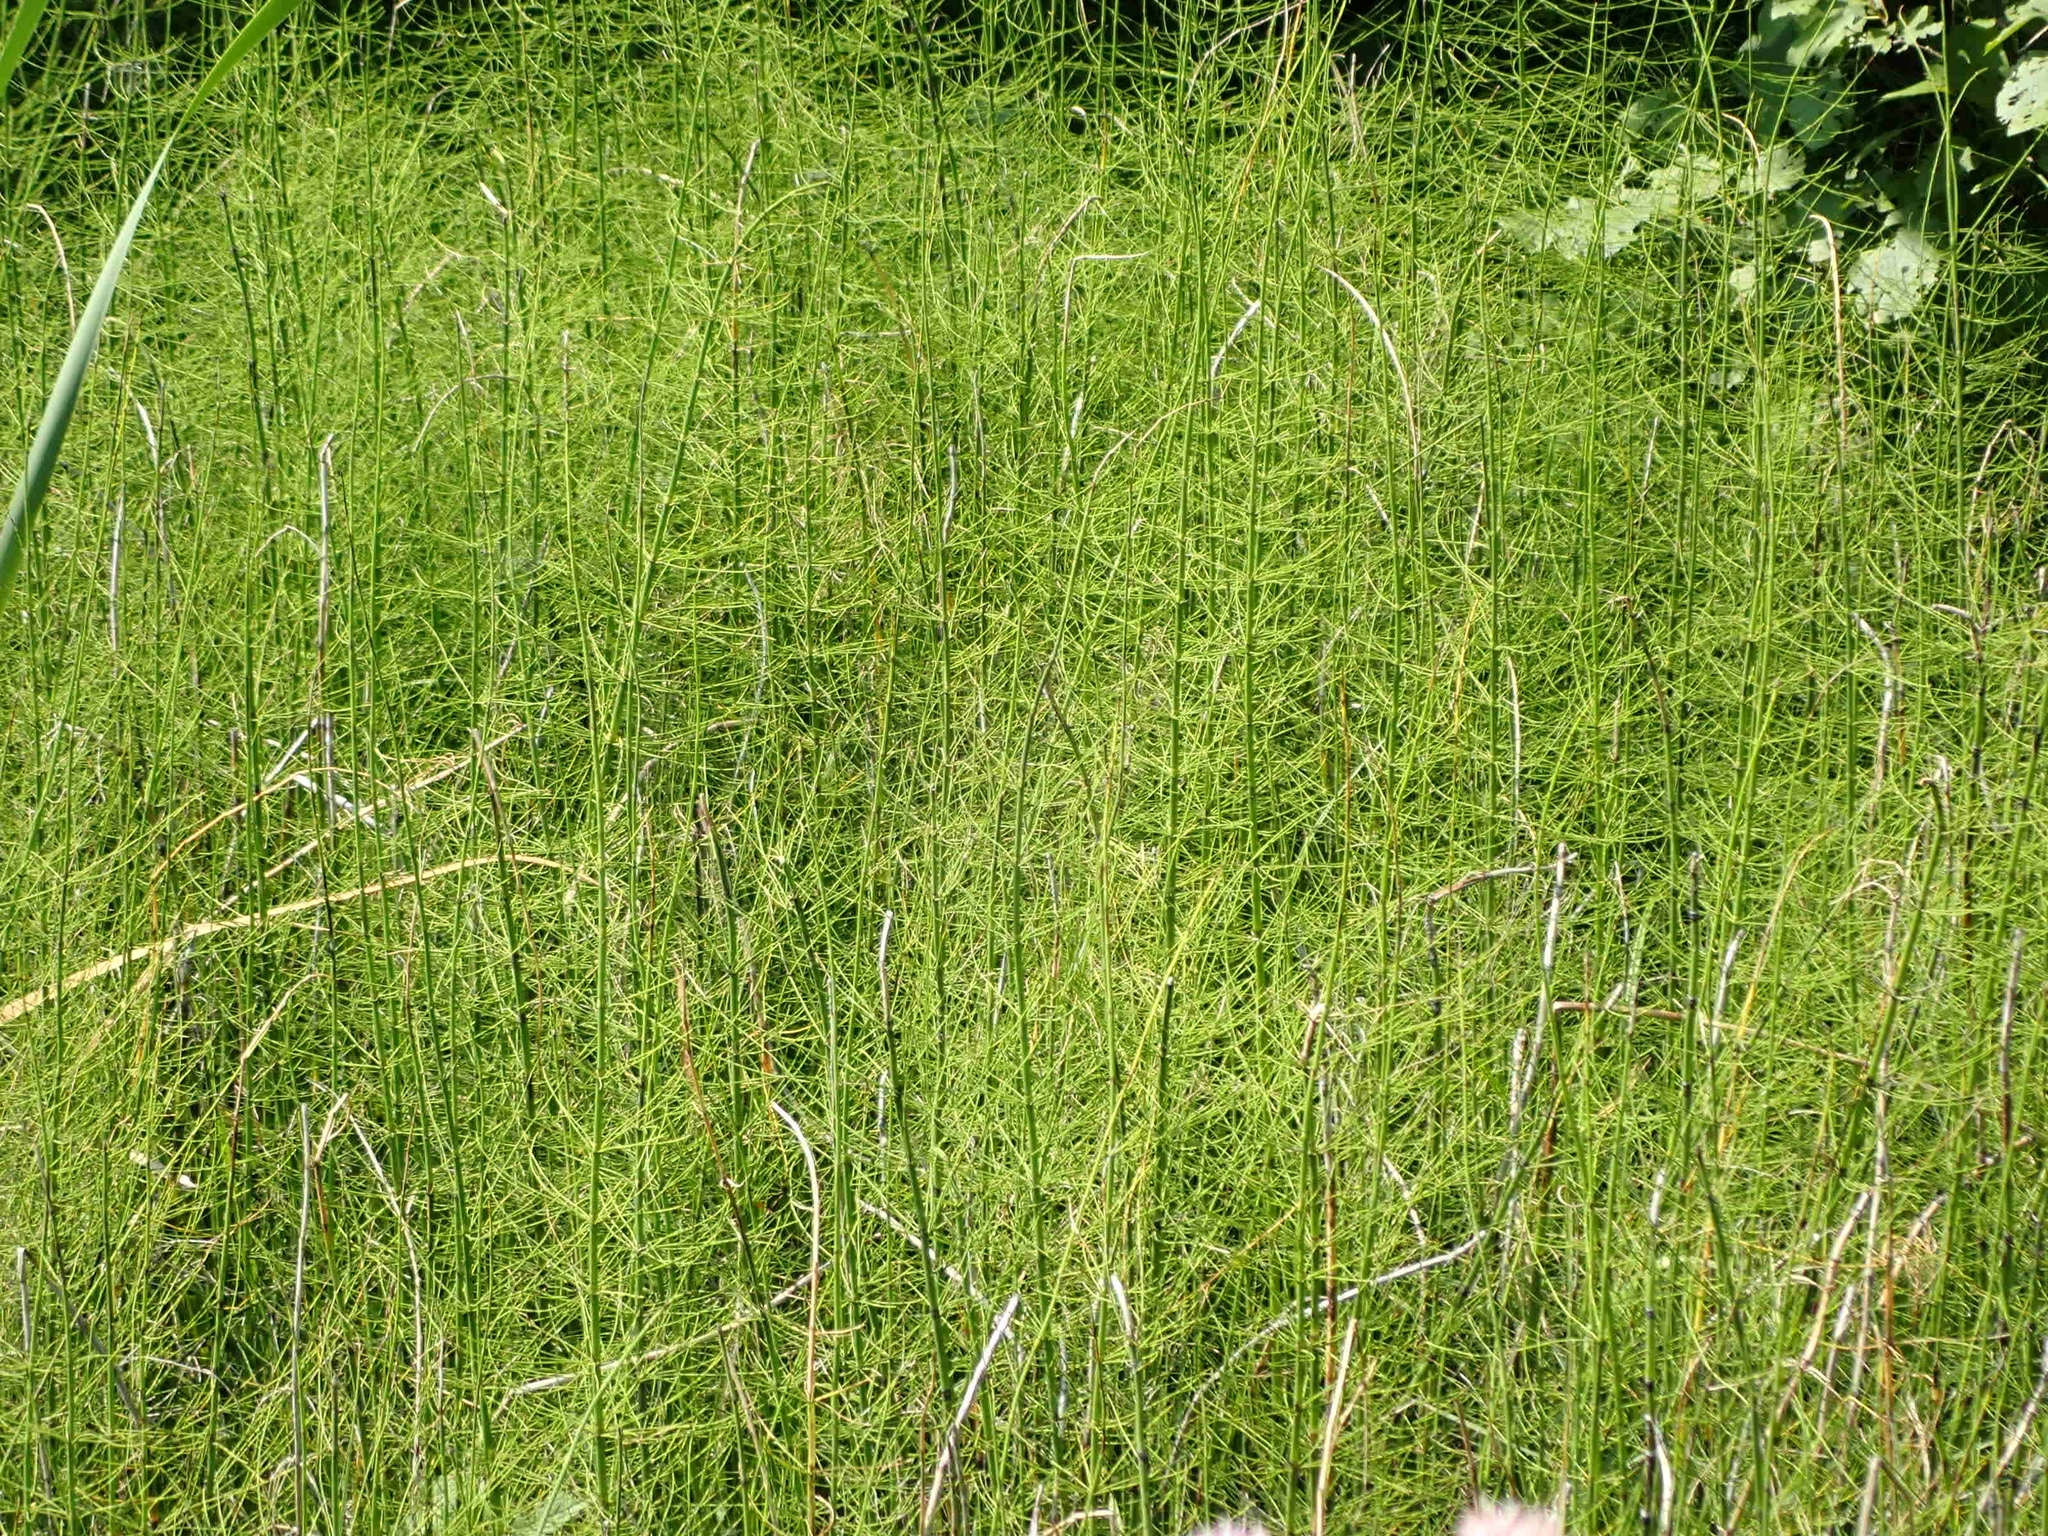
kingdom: Plantae
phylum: Tracheophyta
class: Polypodiopsida
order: Equisetales
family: Equisetaceae
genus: Equisetum
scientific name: Equisetum fluviatile
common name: Water horsetail
